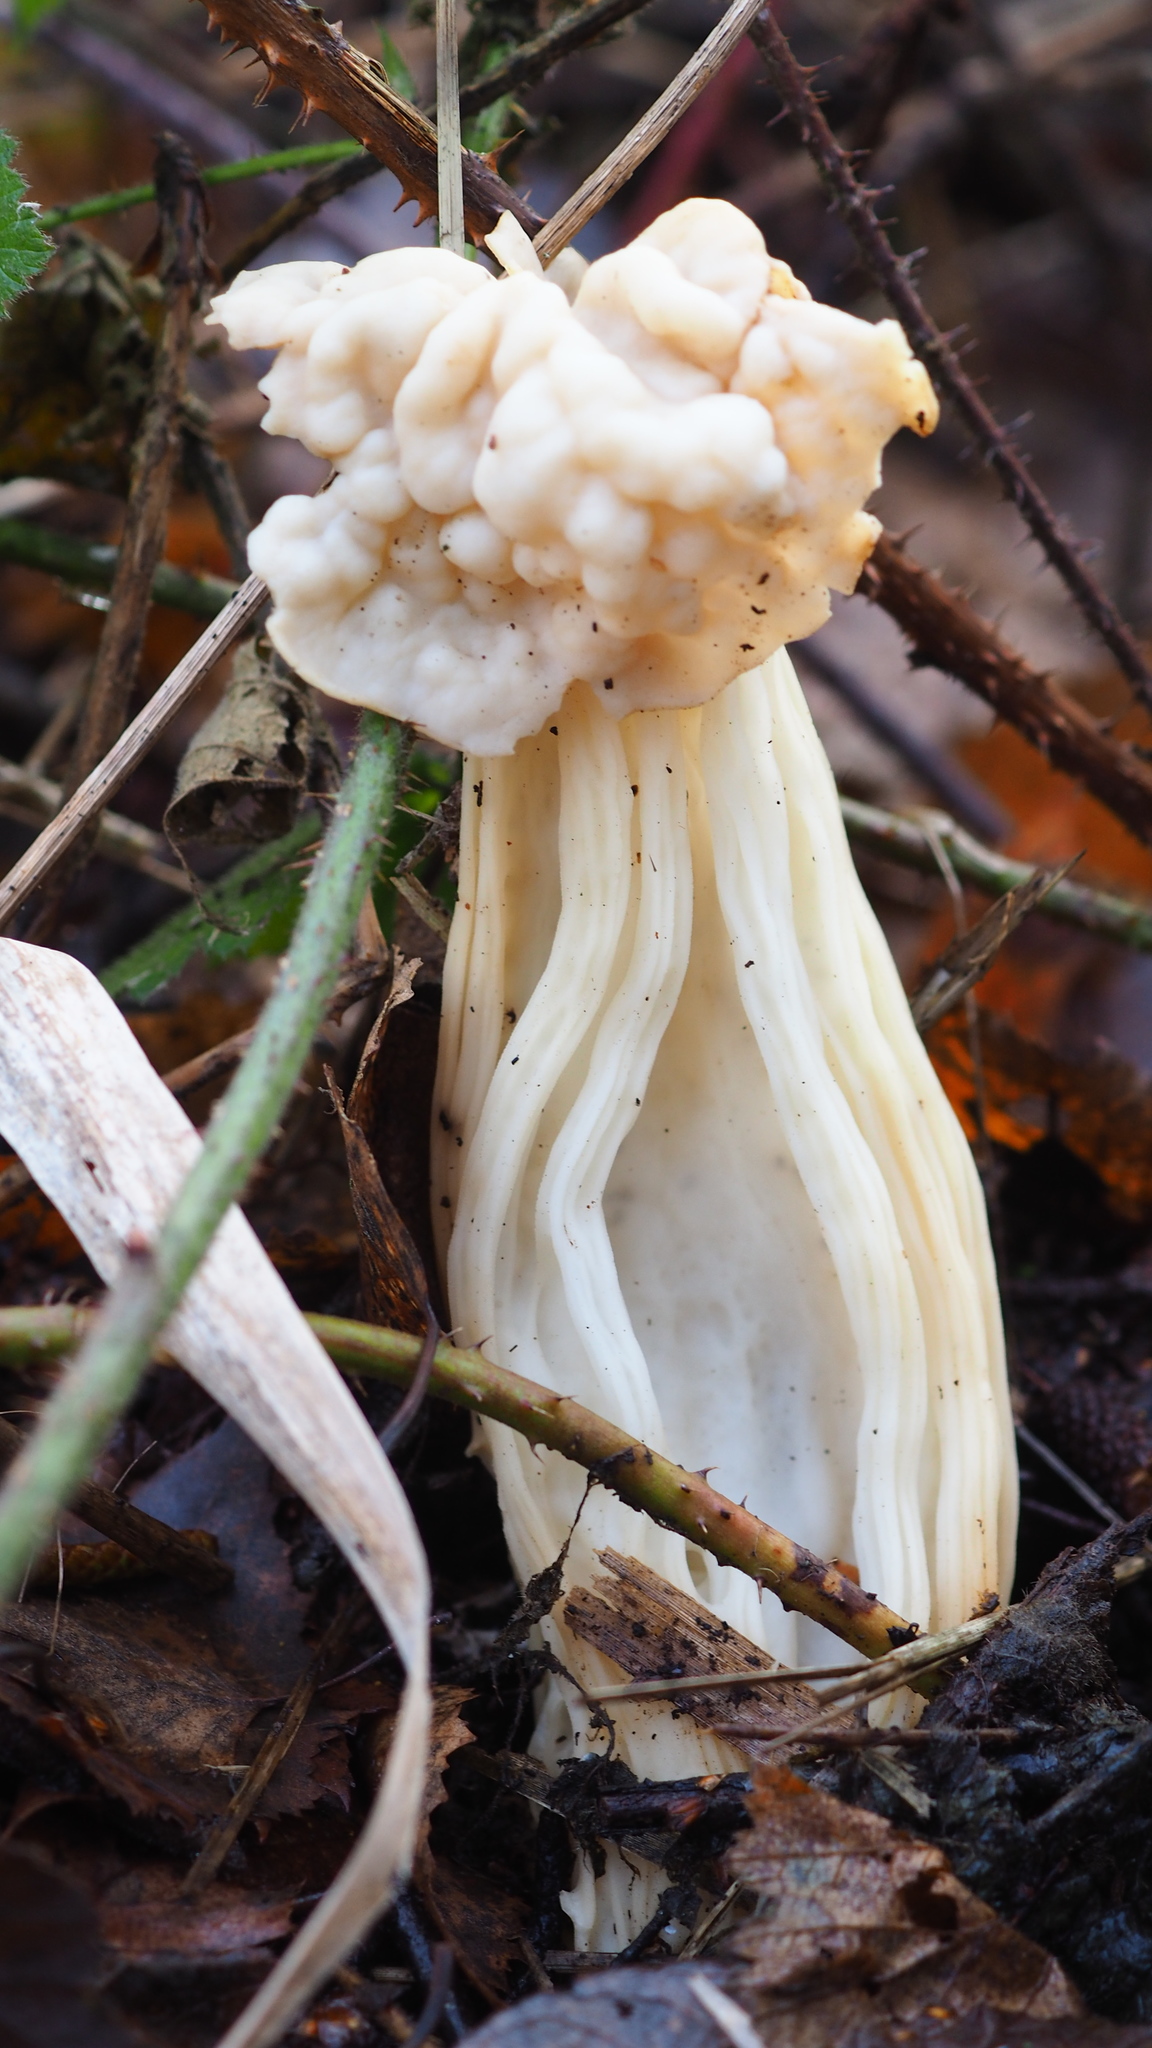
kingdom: Fungi
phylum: Ascomycota
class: Pezizomycetes
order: Pezizales
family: Helvellaceae
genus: Helvella
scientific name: Helvella crispa
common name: White saddle
